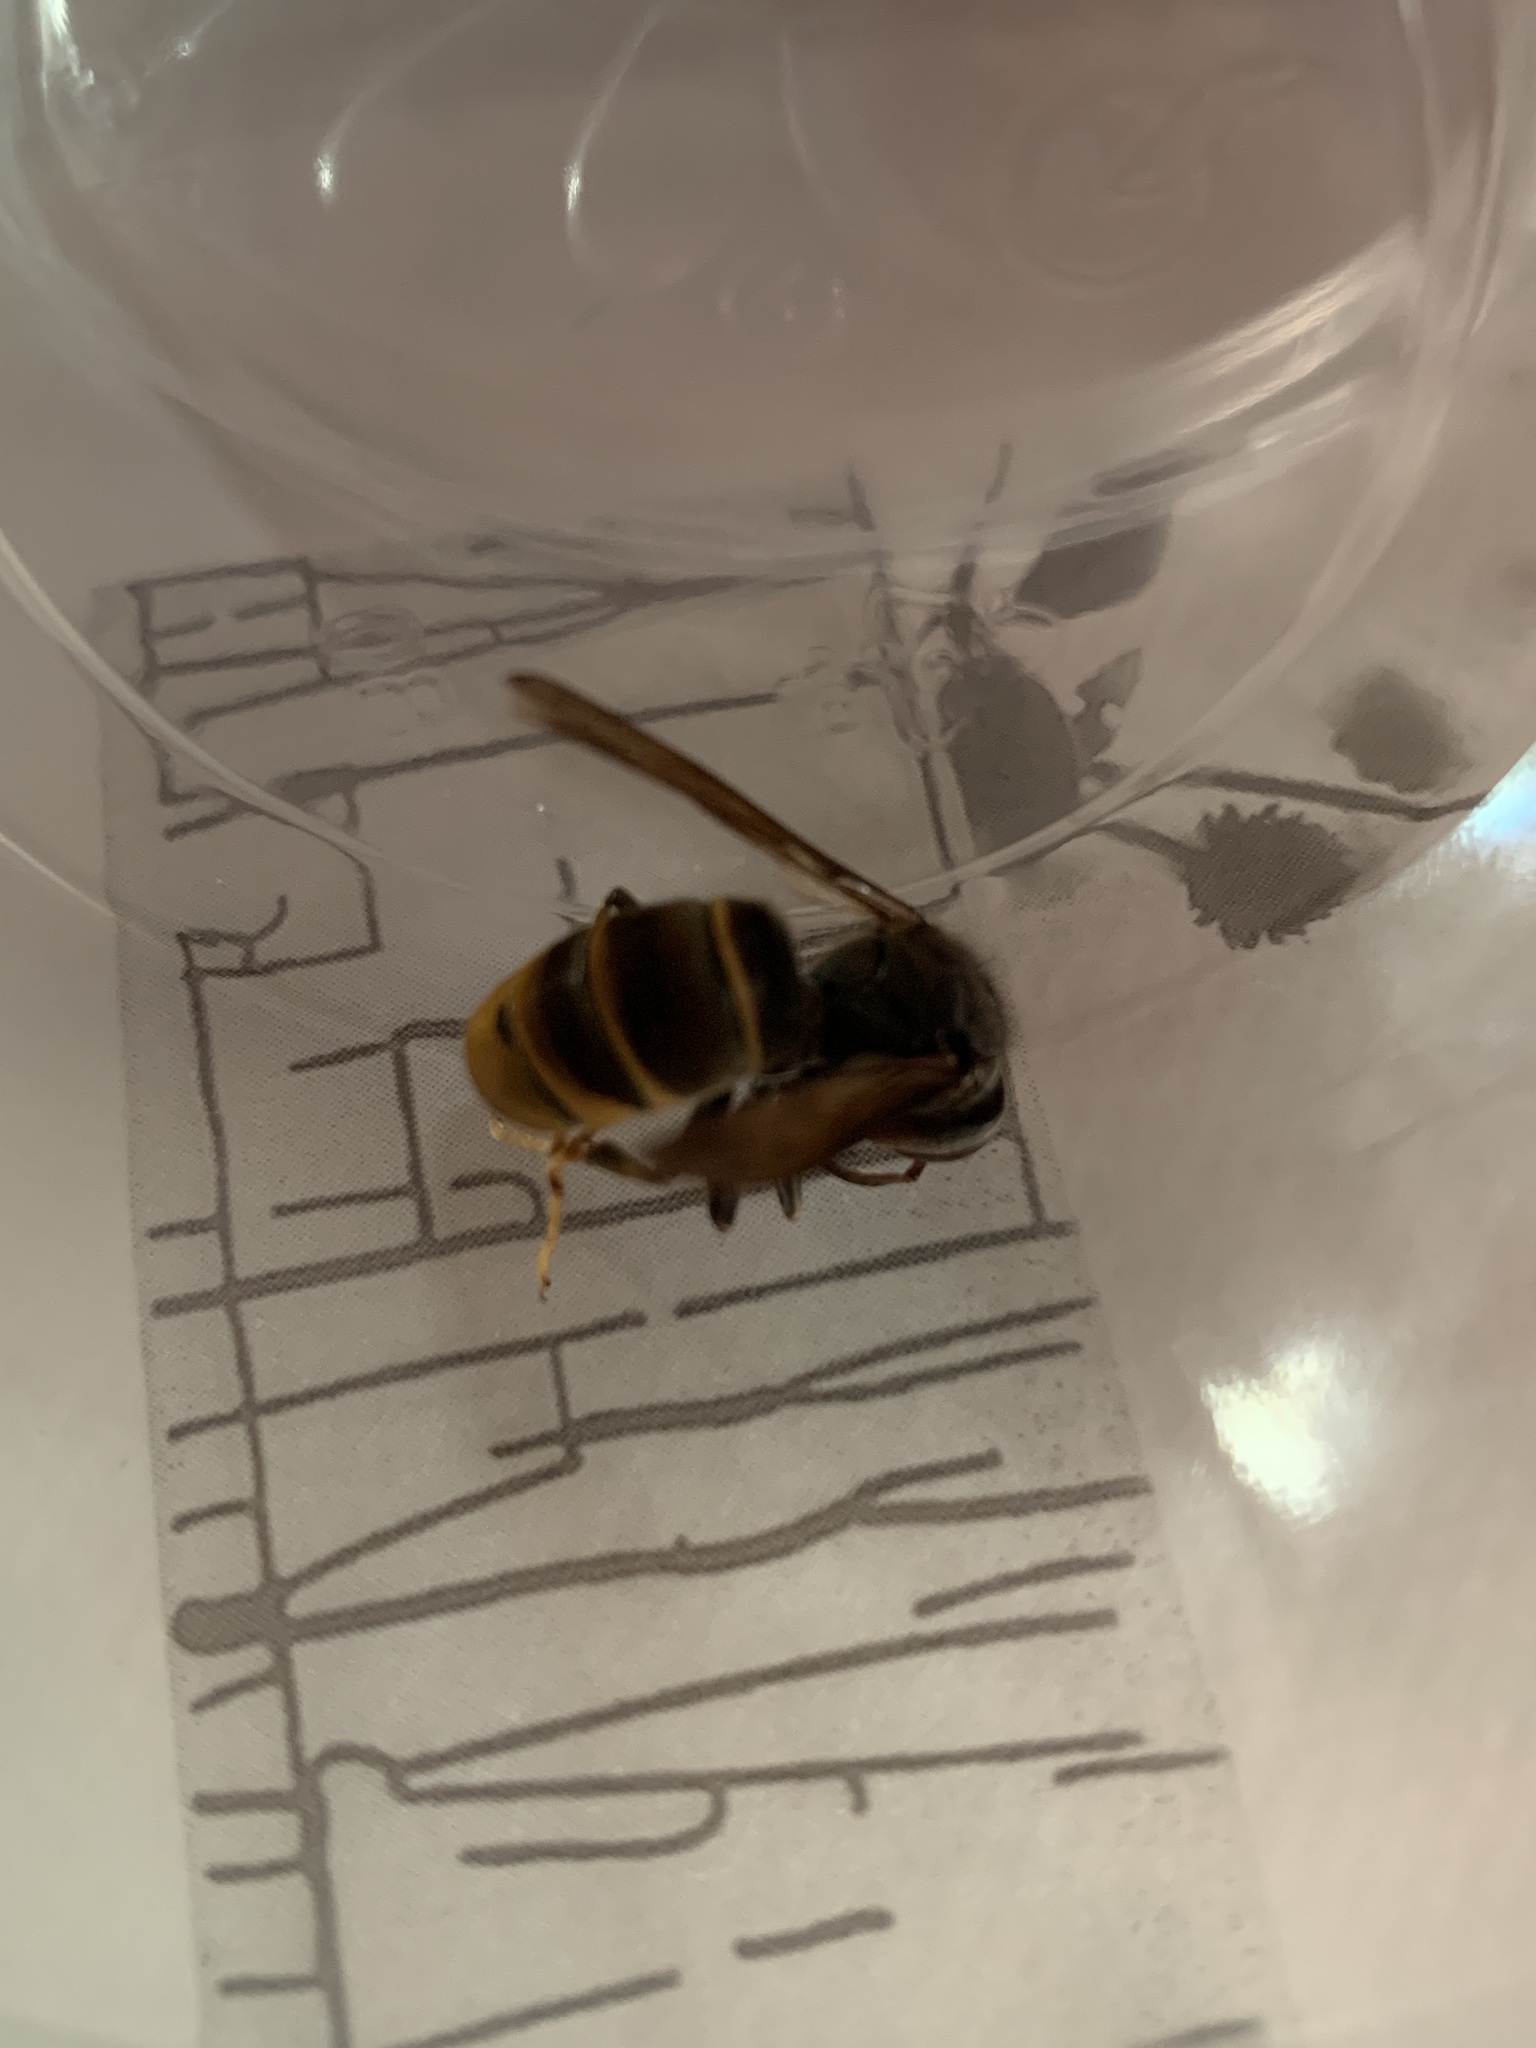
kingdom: Animalia
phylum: Arthropoda
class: Insecta
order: Hymenoptera
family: Vespidae
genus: Vespa
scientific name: Vespa velutina
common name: Asian hornet
